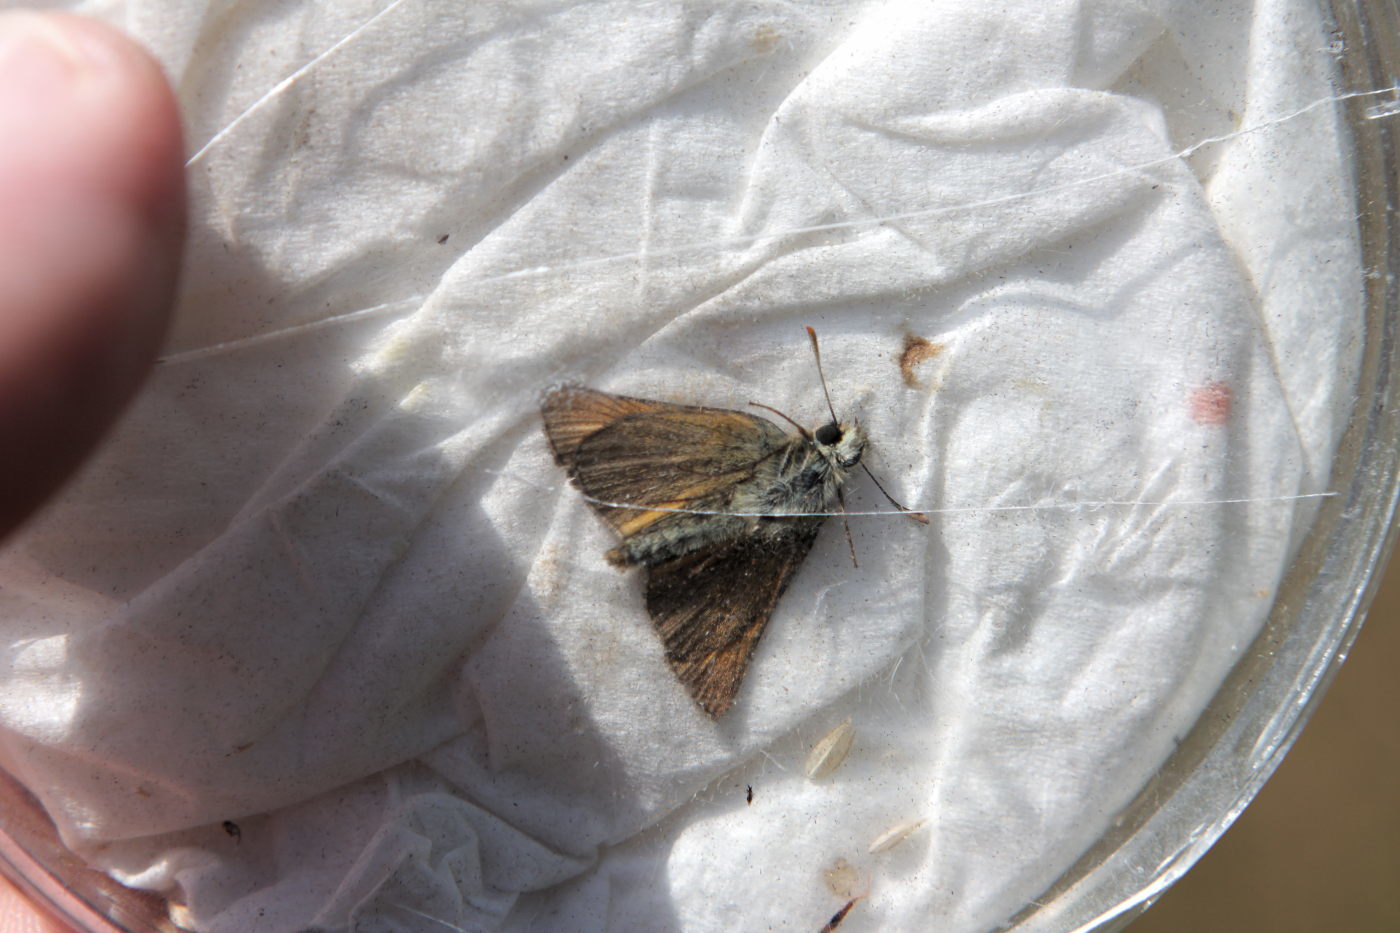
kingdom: Animalia
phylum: Arthropoda
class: Insecta
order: Lepidoptera
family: Hesperiidae
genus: Thymelicus
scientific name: Thymelicus sylvestris
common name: Small skipper
